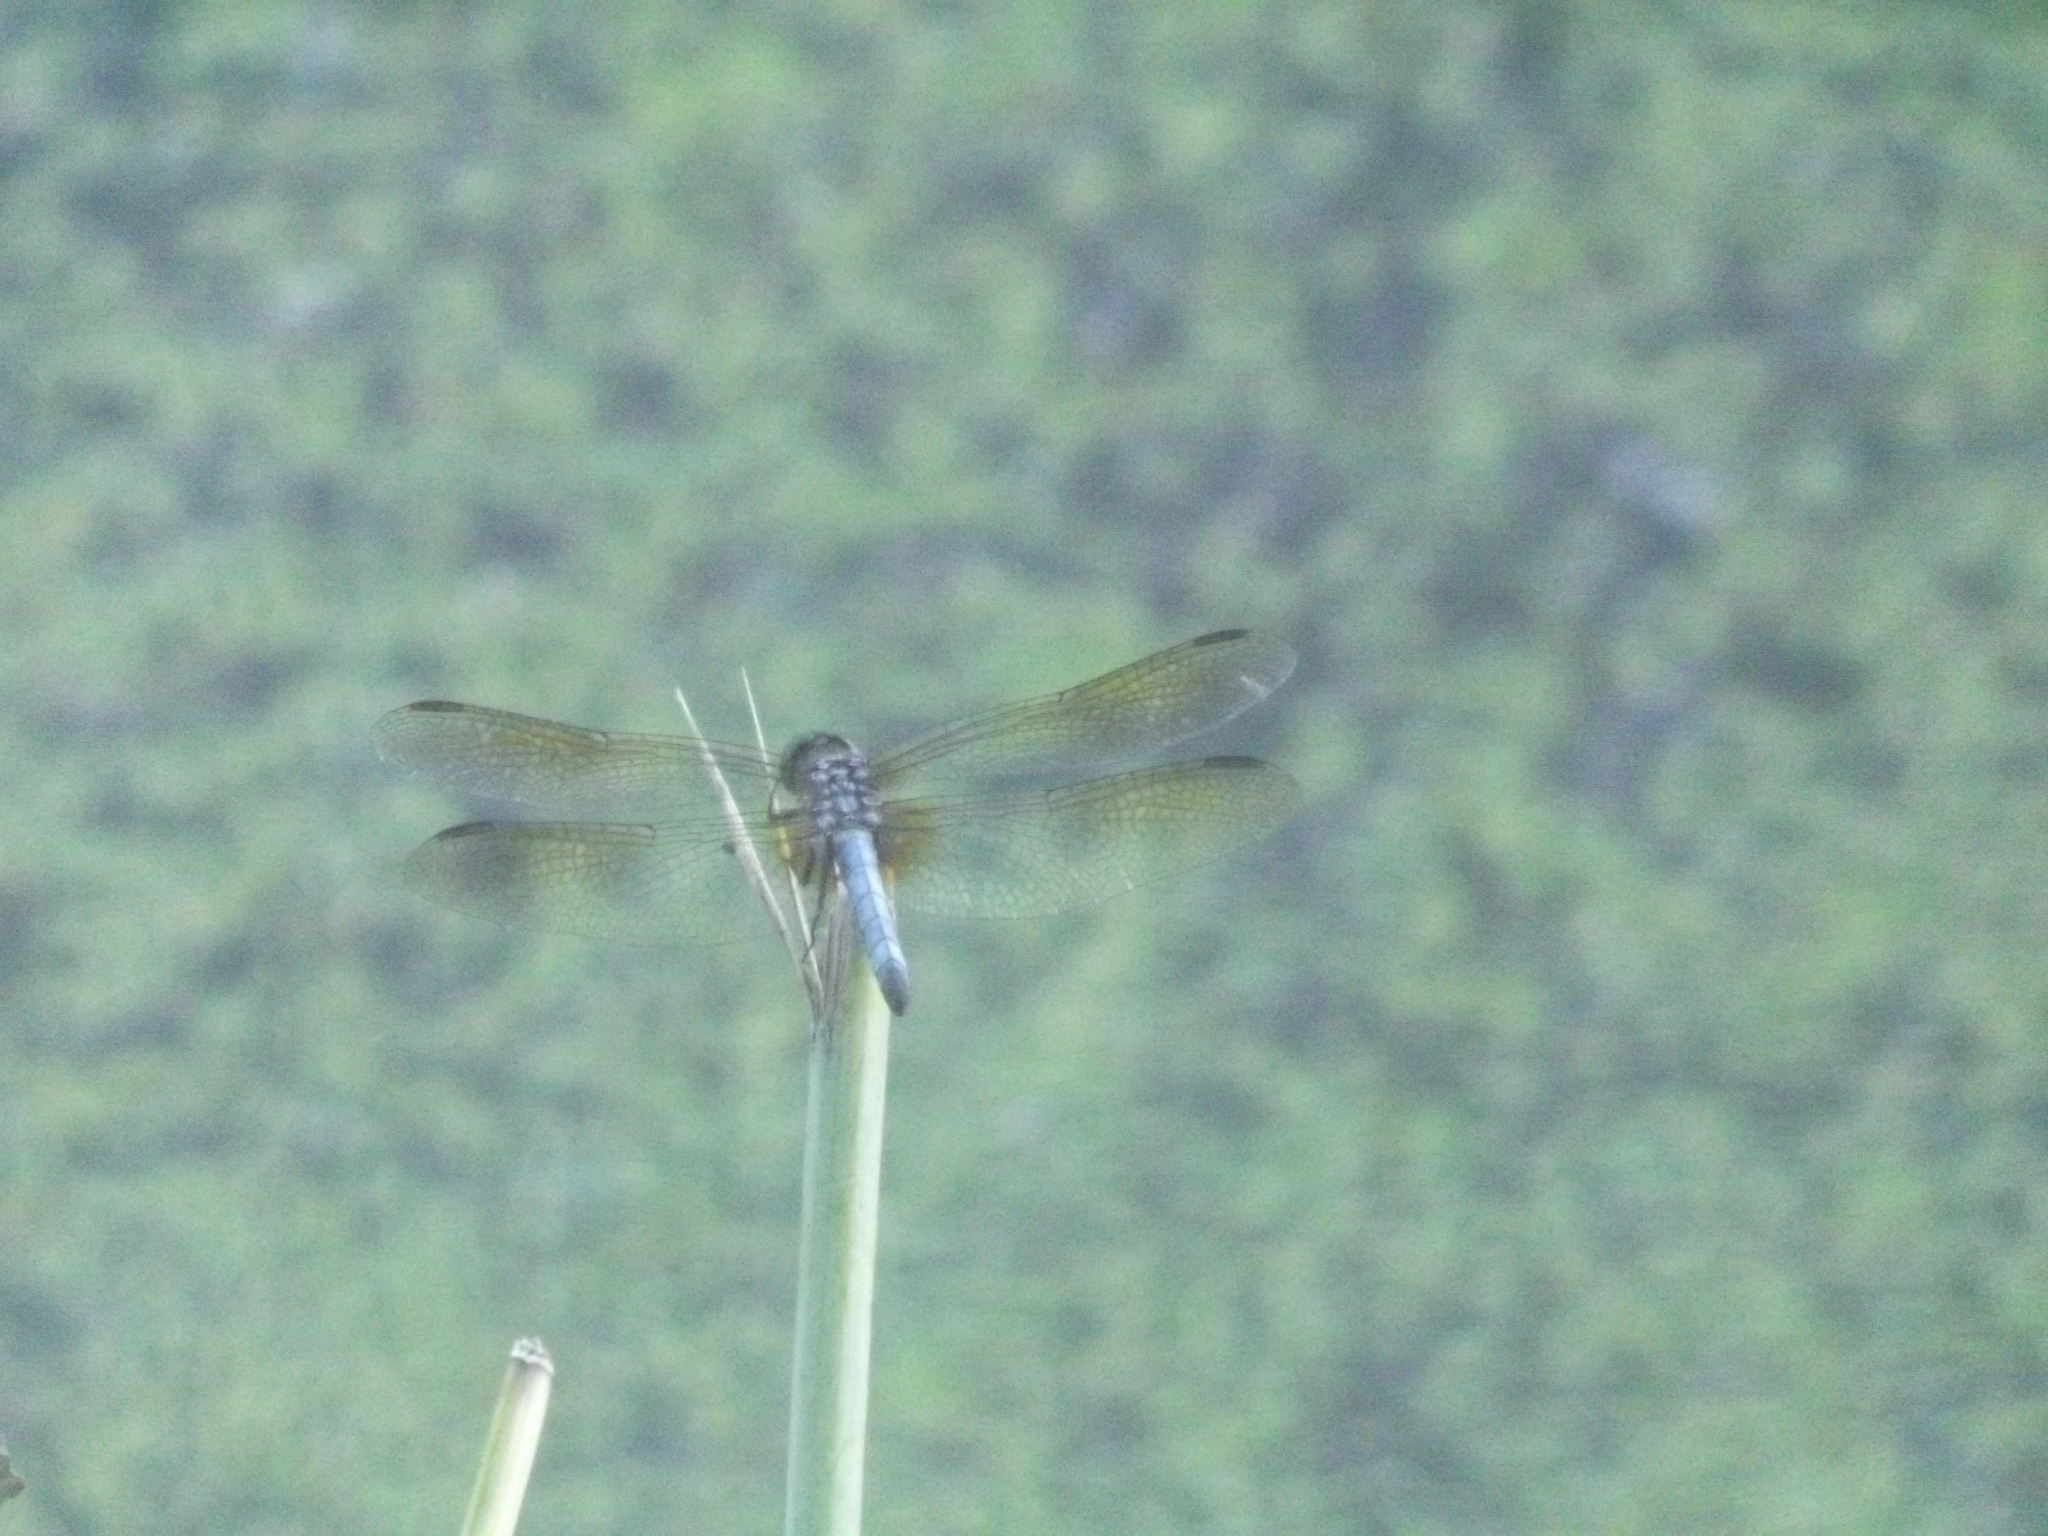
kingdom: Animalia
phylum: Arthropoda
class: Insecta
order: Odonata
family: Libellulidae
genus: Pachydiplax
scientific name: Pachydiplax longipennis
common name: Blue dasher
